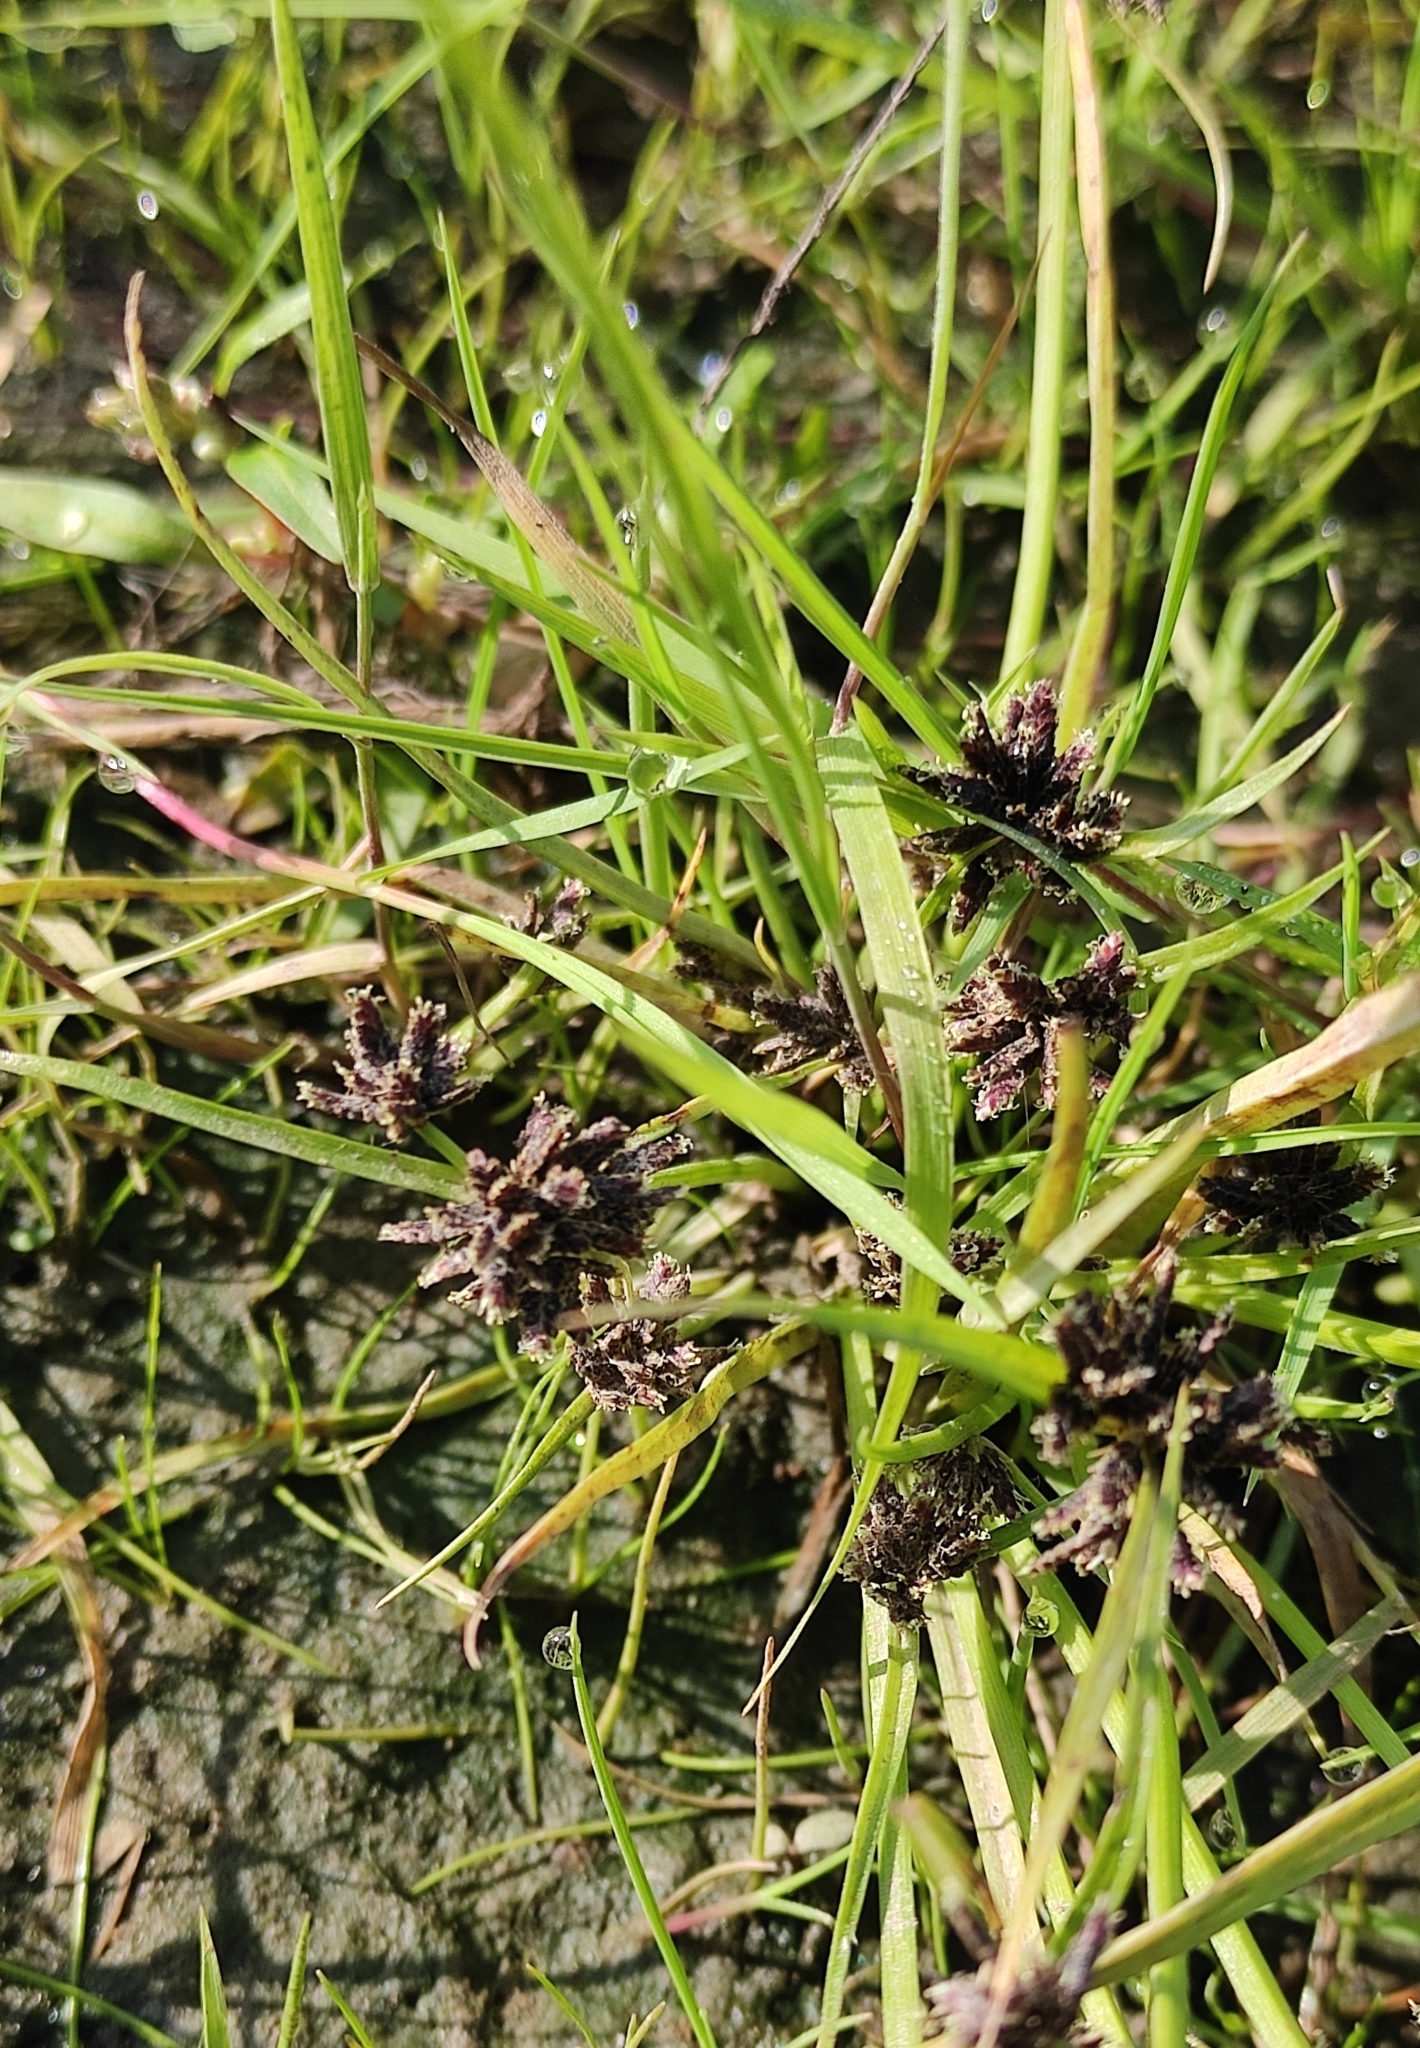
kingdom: Plantae
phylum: Tracheophyta
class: Liliopsida
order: Poales
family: Cyperaceae
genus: Cyperus
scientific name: Cyperus fuscus
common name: Brown galingale
